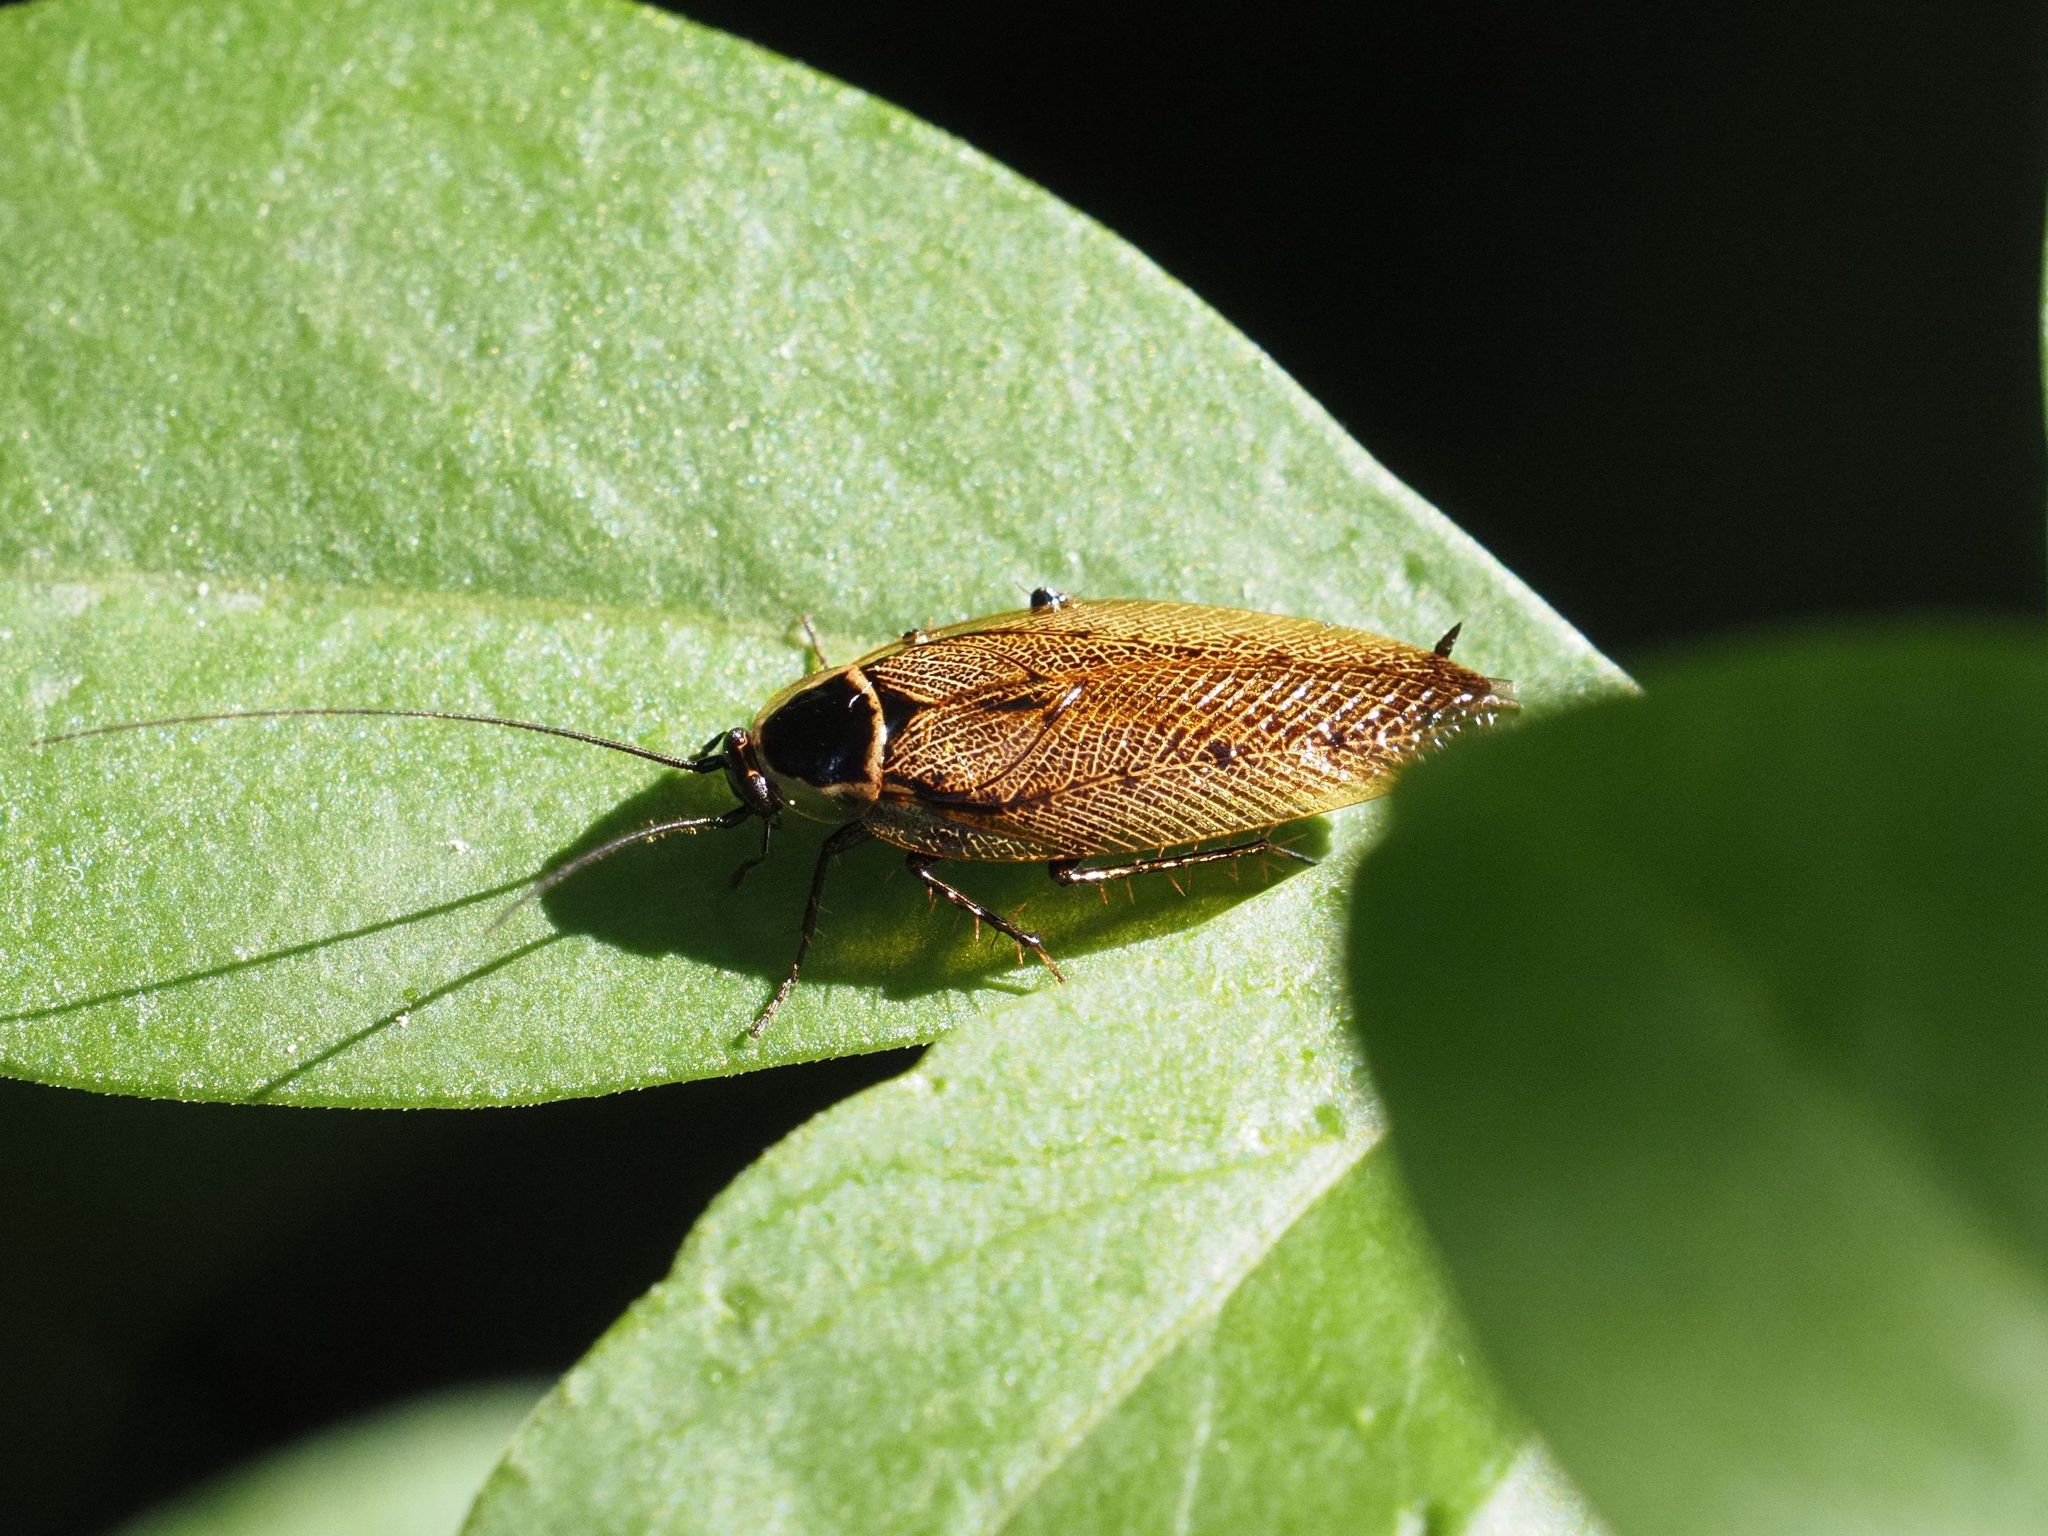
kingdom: Animalia
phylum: Arthropoda
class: Insecta
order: Blattodea
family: Ectobiidae
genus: Ectobius
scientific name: Ectobius sylvestris
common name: Forest cockroach
